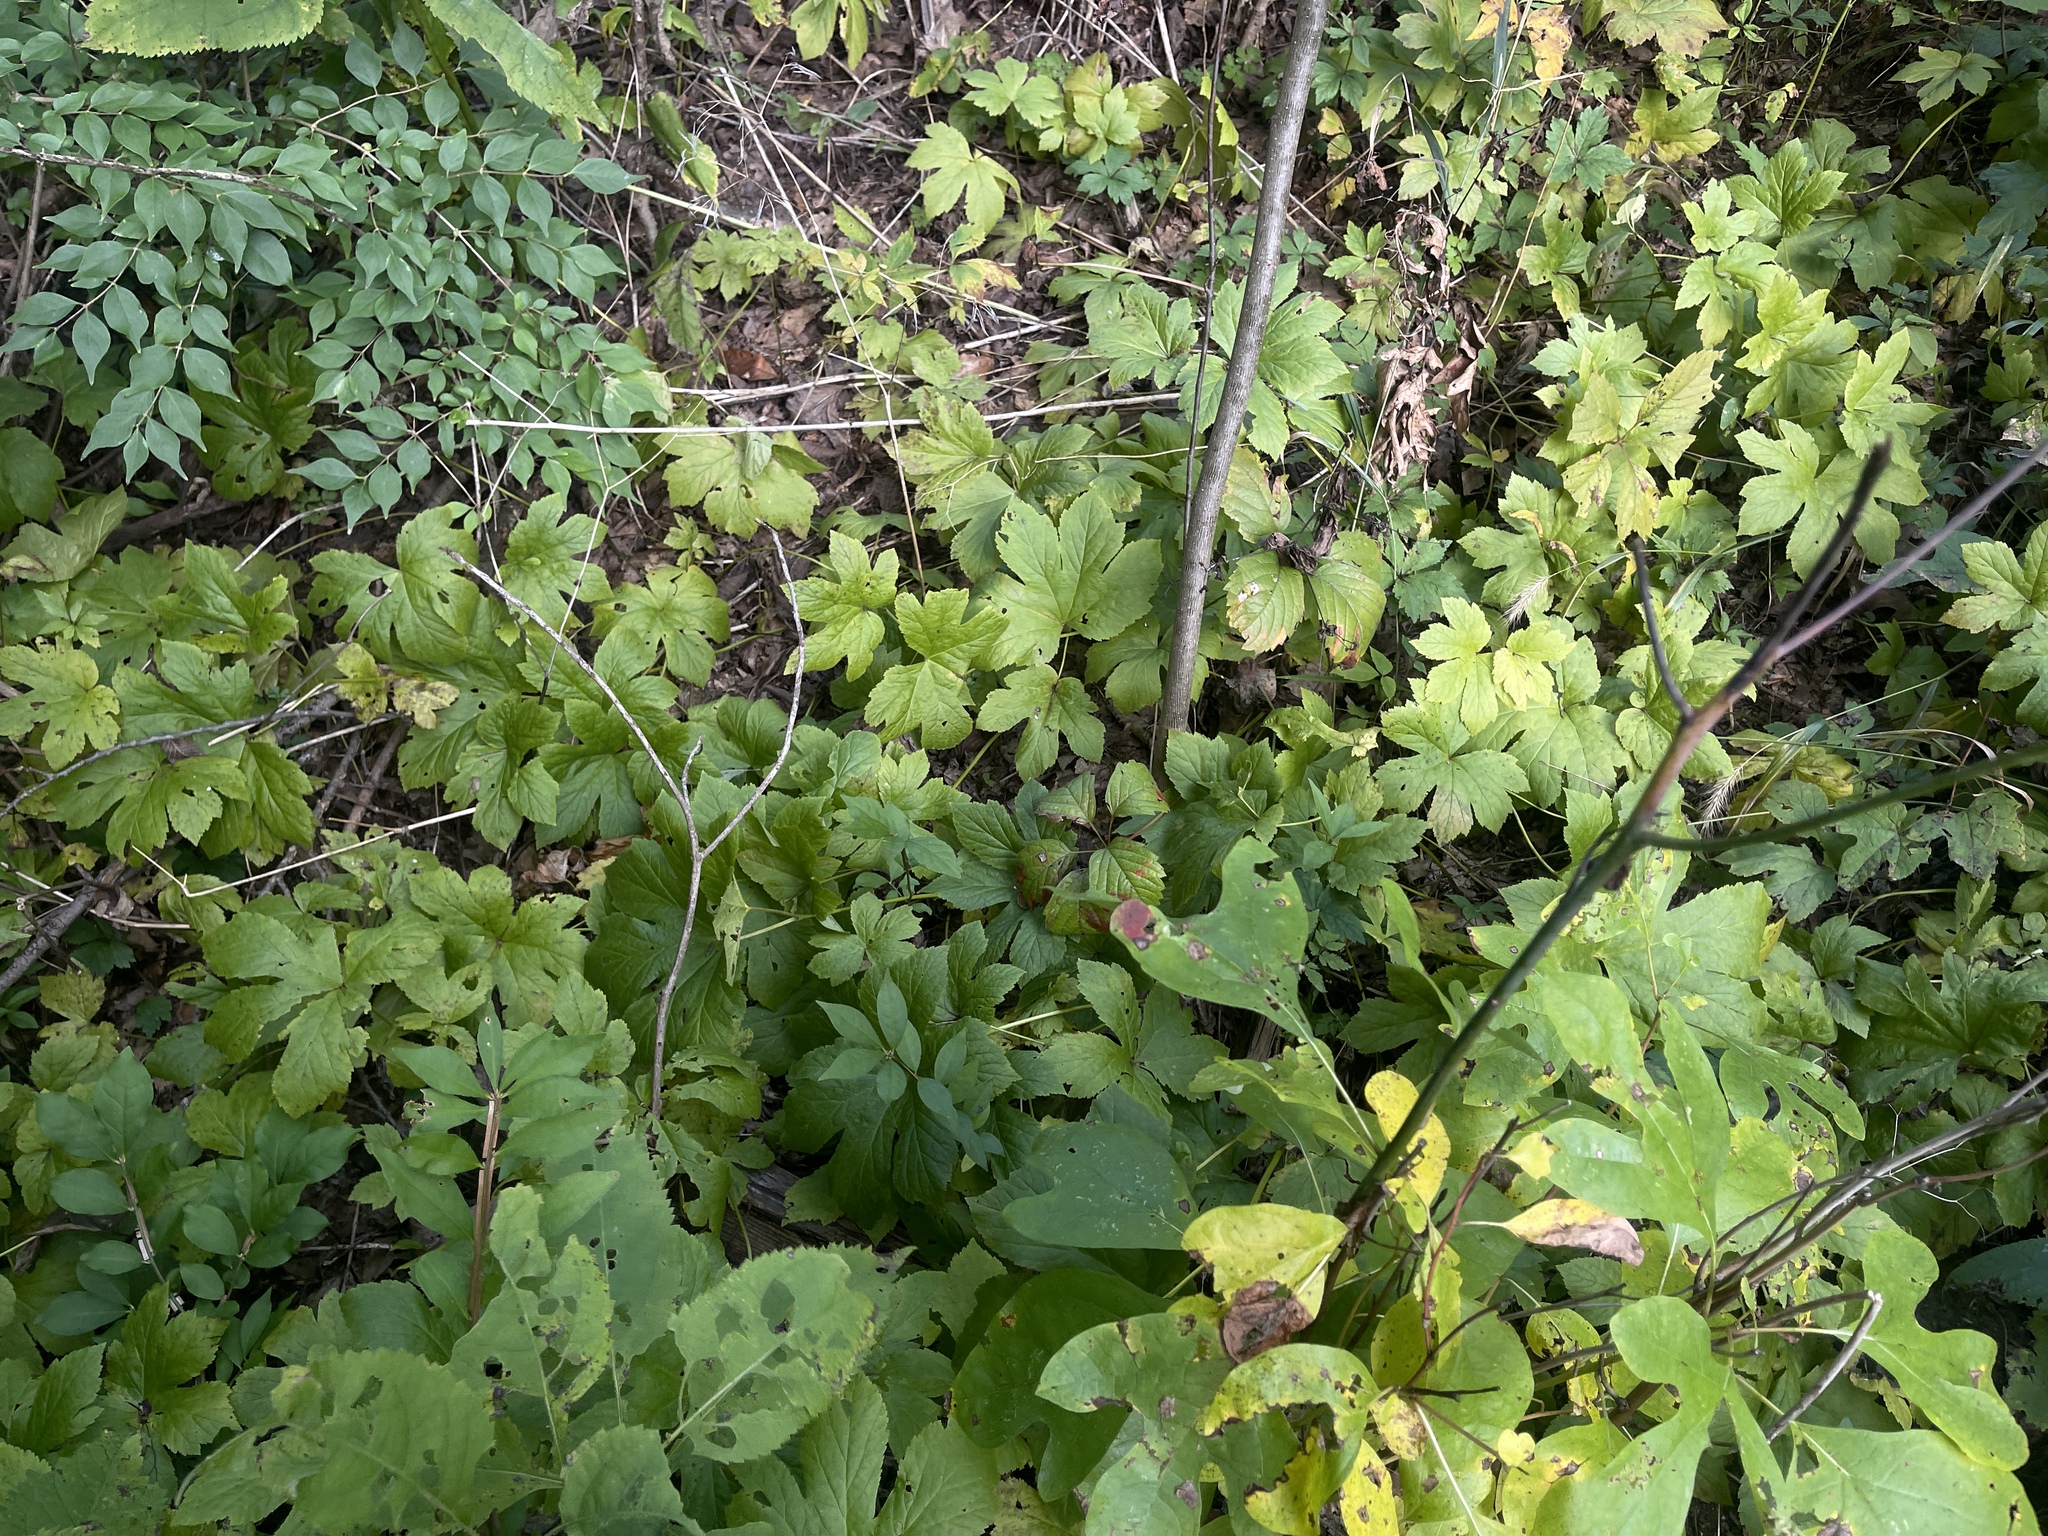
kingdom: Plantae
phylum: Tracheophyta
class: Magnoliopsida
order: Ranunculales
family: Ranunculaceae
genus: Hydrastis
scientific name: Hydrastis canadensis
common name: Goldenseal
